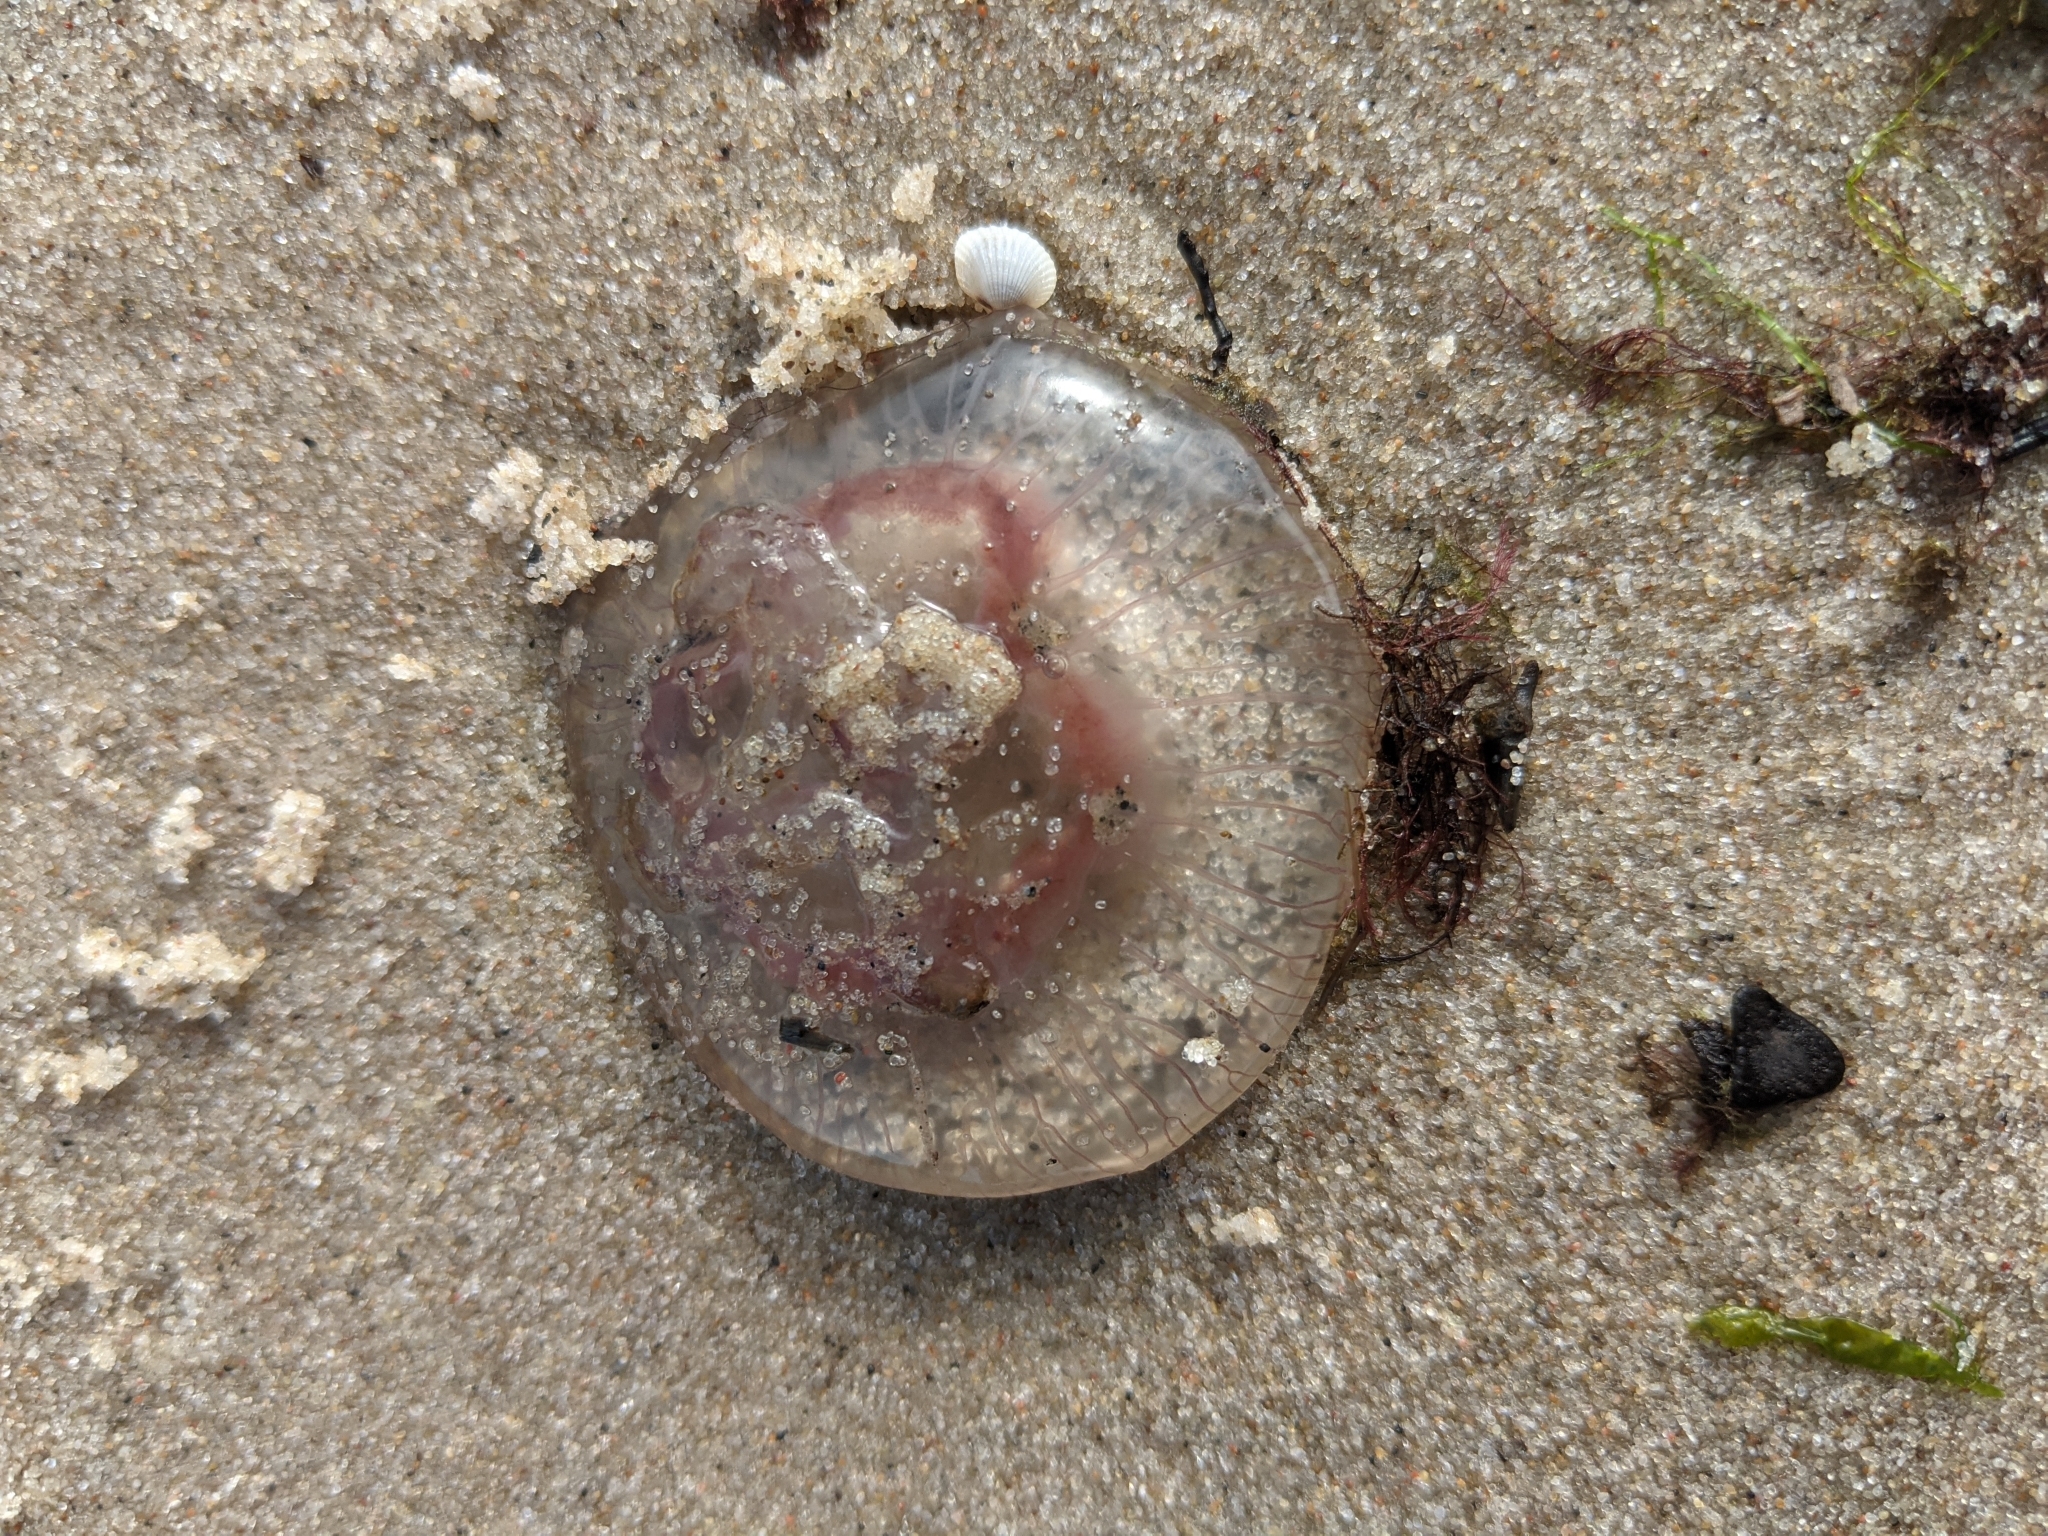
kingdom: Animalia
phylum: Cnidaria
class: Scyphozoa
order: Semaeostomeae
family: Ulmaridae
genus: Aurelia
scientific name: Aurelia aurita
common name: Moon jellyfish
